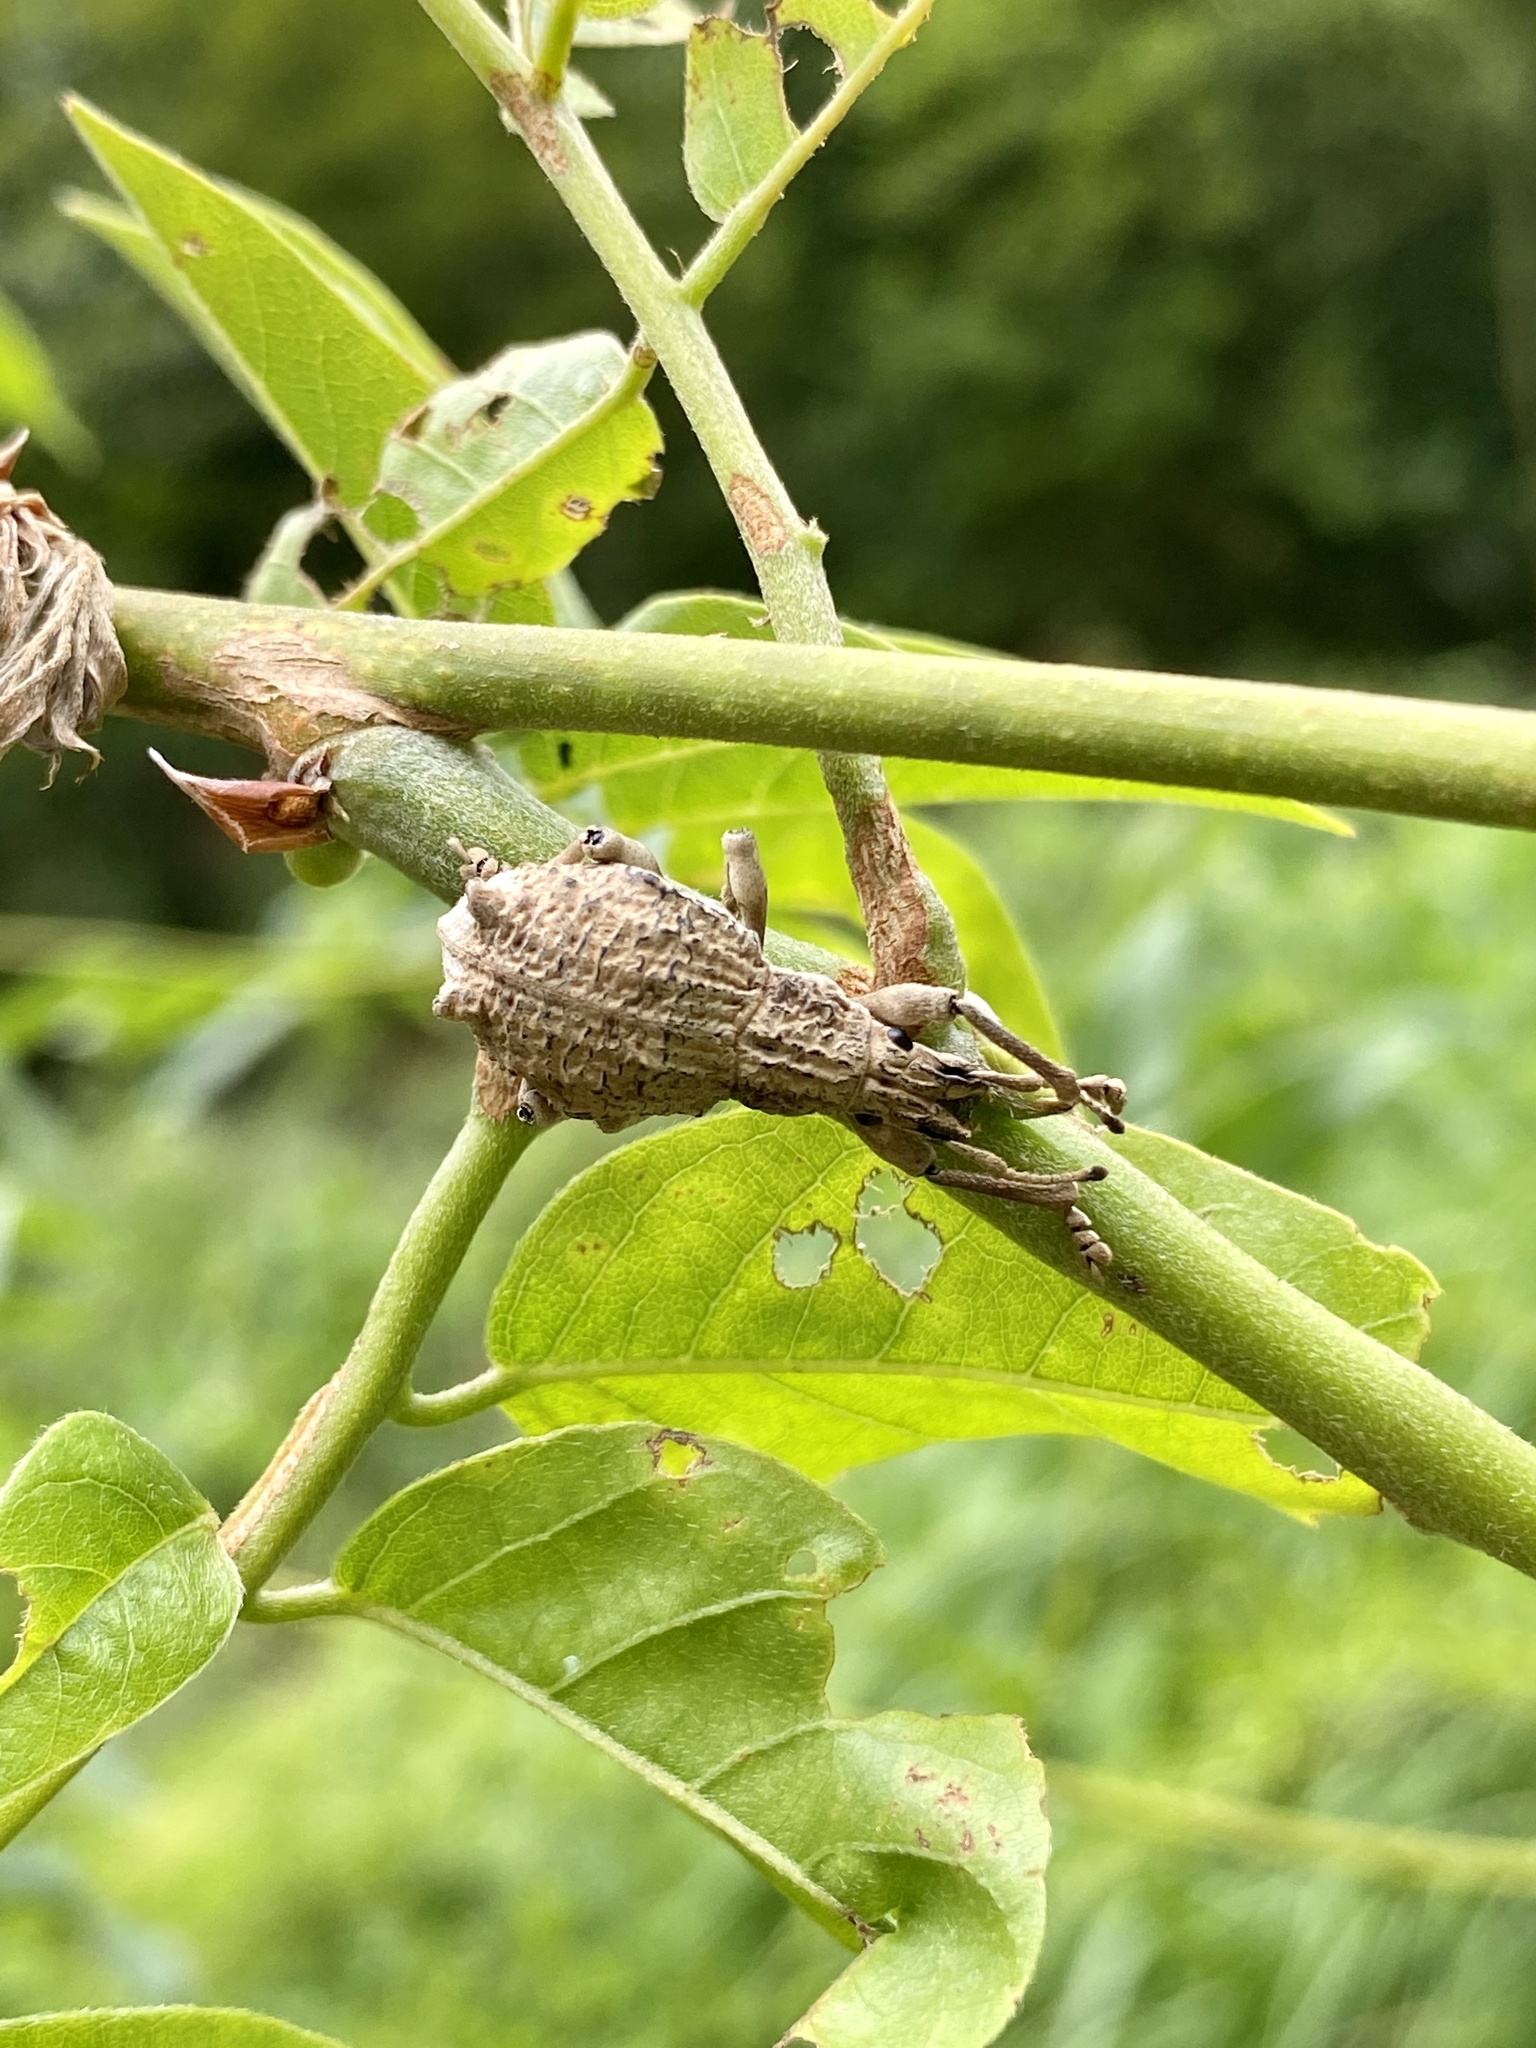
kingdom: Animalia
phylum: Arthropoda
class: Insecta
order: Coleoptera
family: Curculionidae
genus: Episomus
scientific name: Episomus turritus
